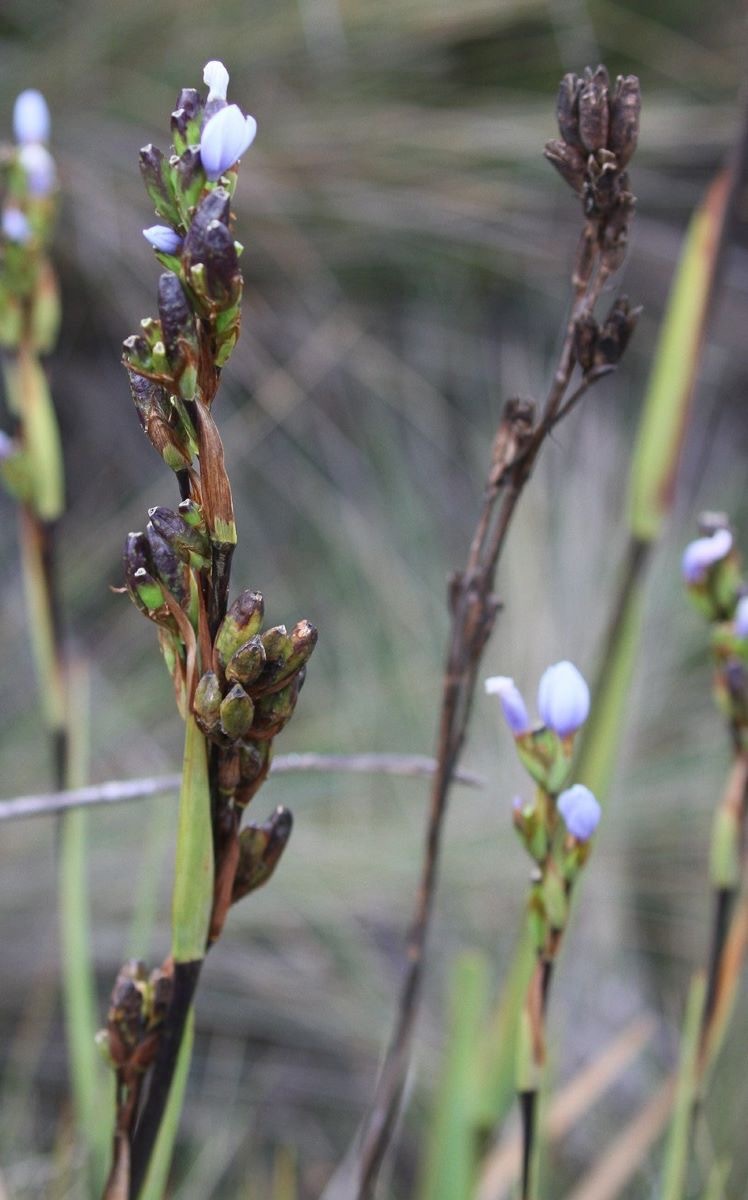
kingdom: Plantae
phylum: Tracheophyta
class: Liliopsida
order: Asparagales
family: Iridaceae
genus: Orthrosanthus
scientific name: Orthrosanthus chimboracensis
